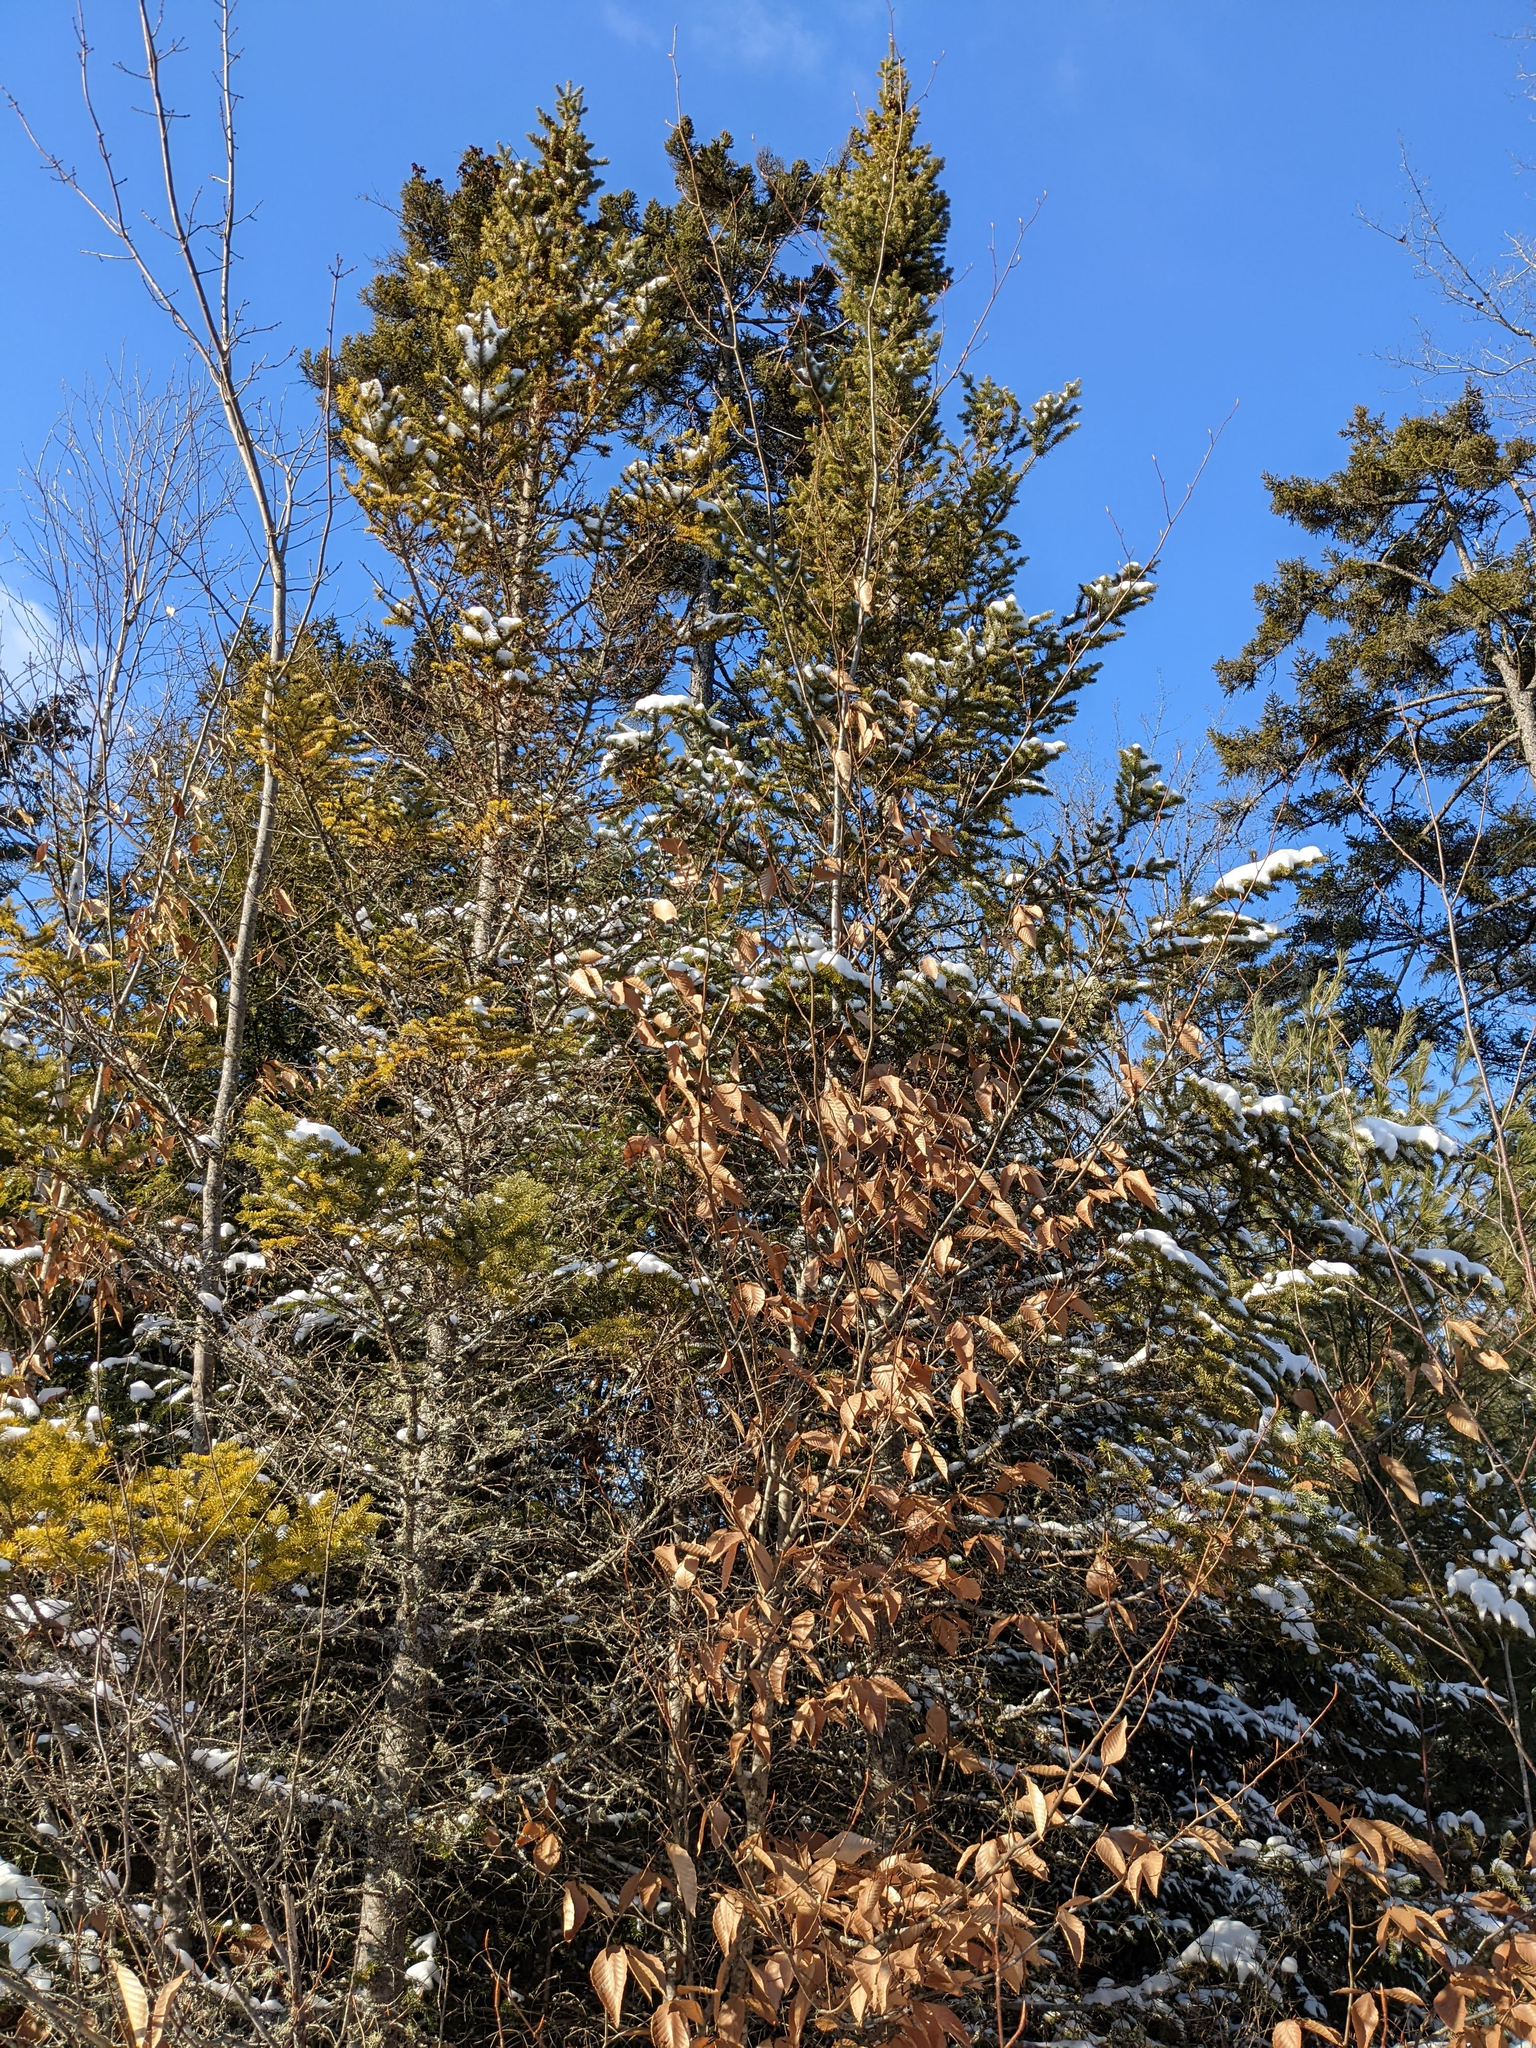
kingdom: Plantae
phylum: Tracheophyta
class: Magnoliopsida
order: Fagales
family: Fagaceae
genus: Fagus
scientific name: Fagus grandifolia
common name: American beech
